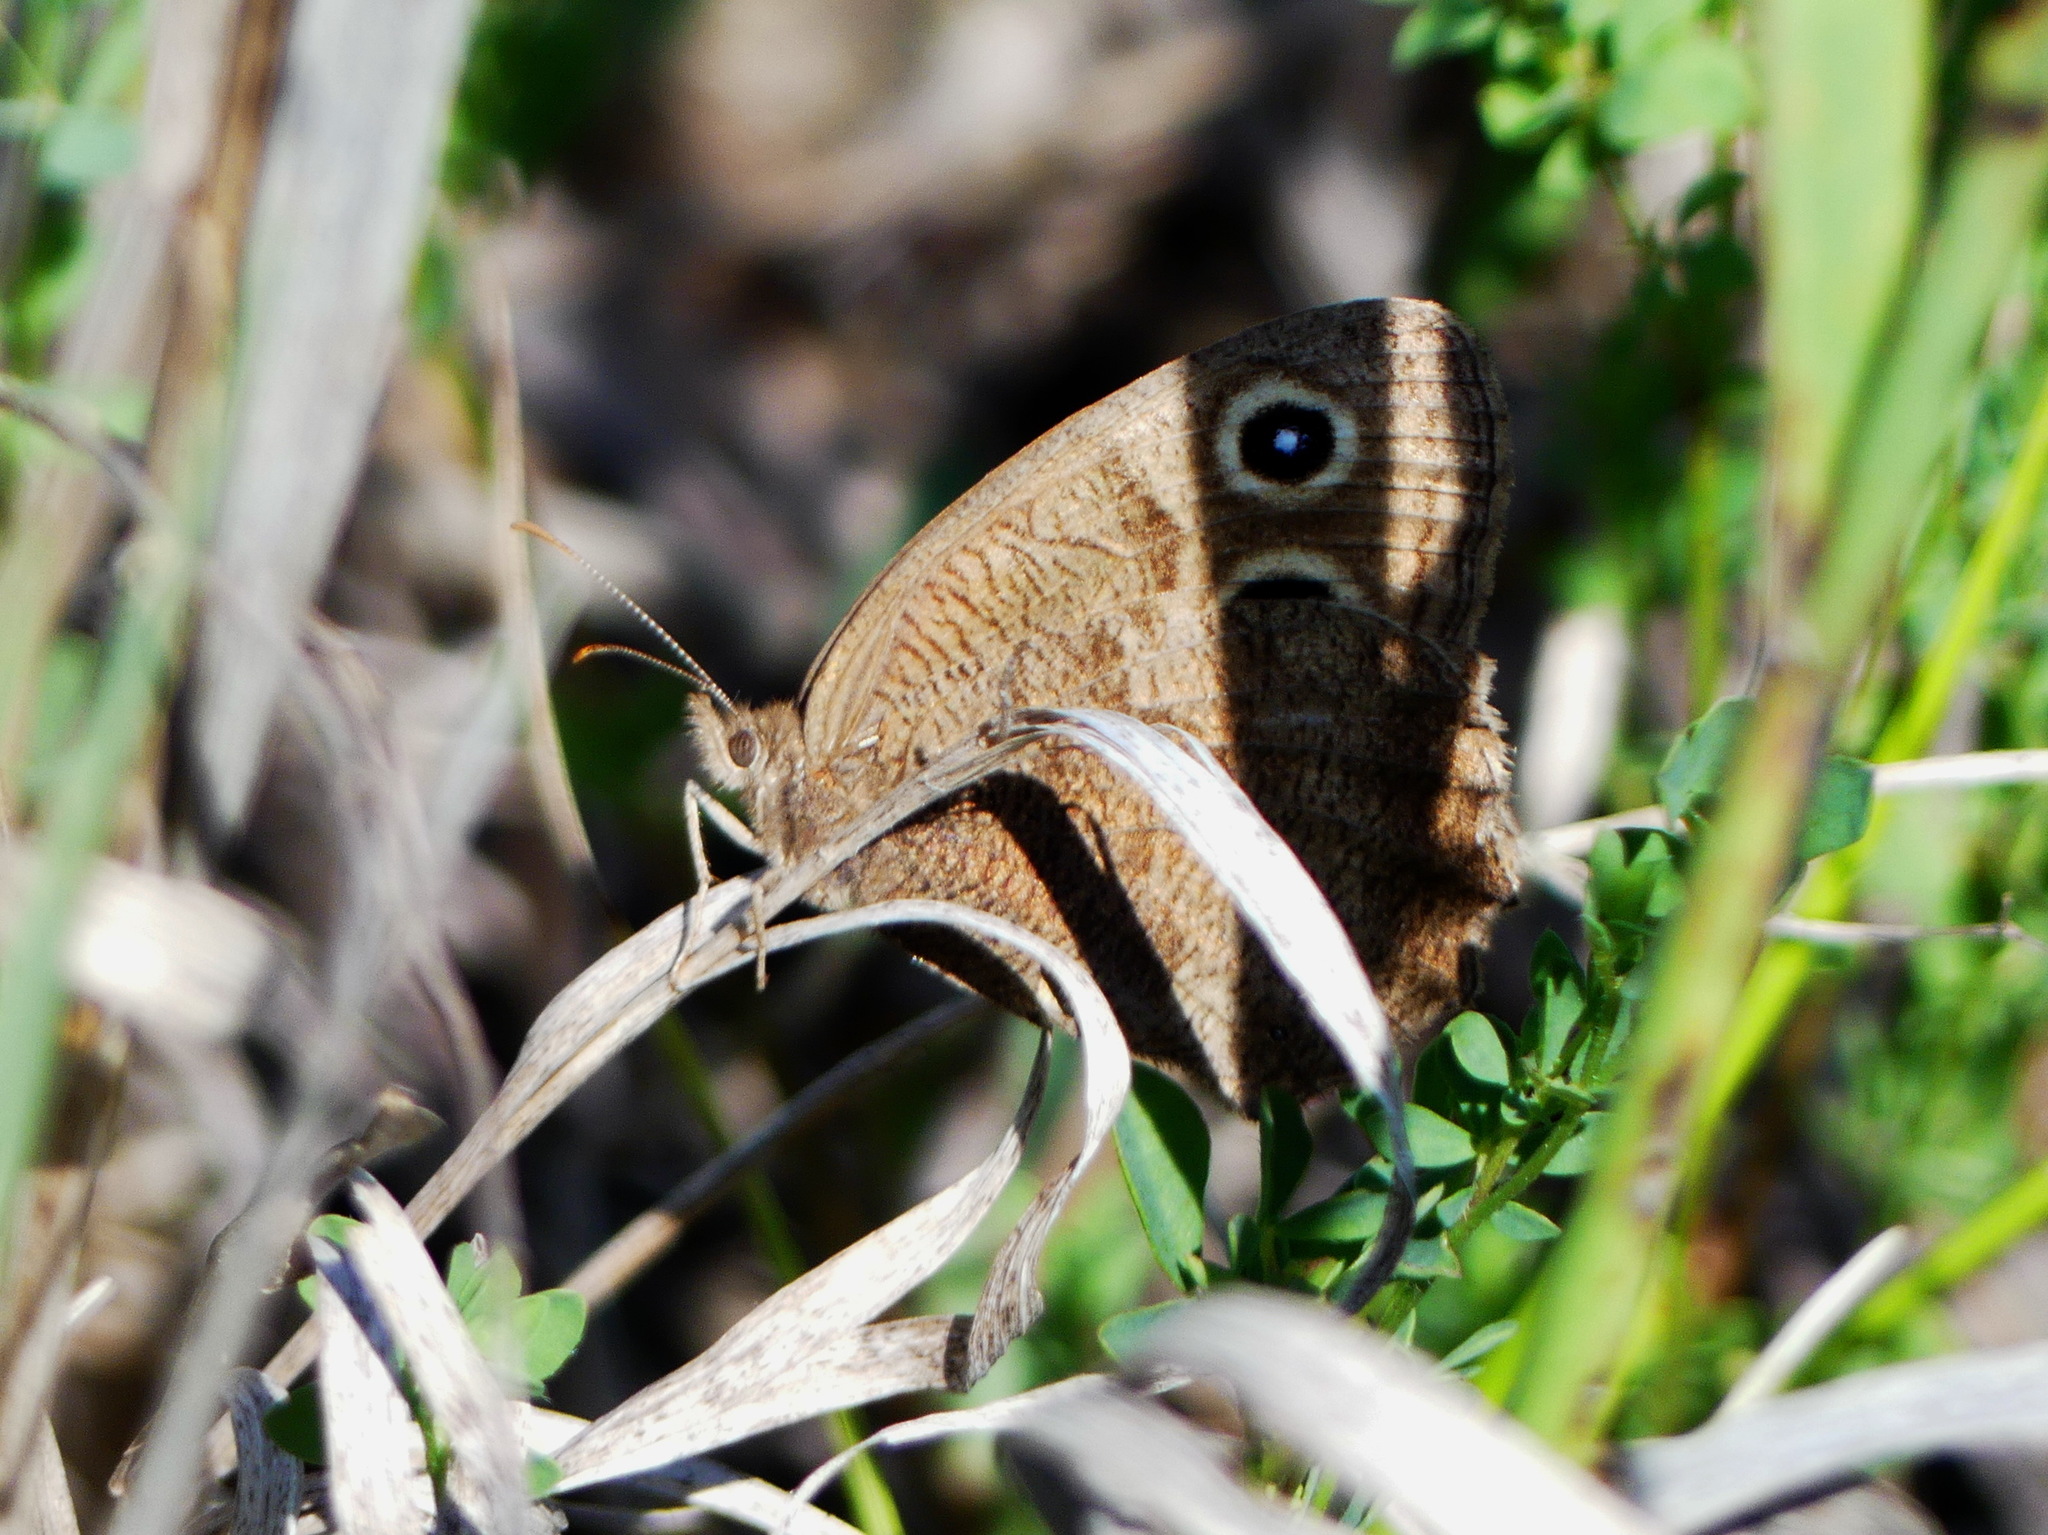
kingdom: Animalia
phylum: Arthropoda
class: Insecta
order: Lepidoptera
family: Nymphalidae
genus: Cercyonis
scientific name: Cercyonis pegala
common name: Common wood-nymph
